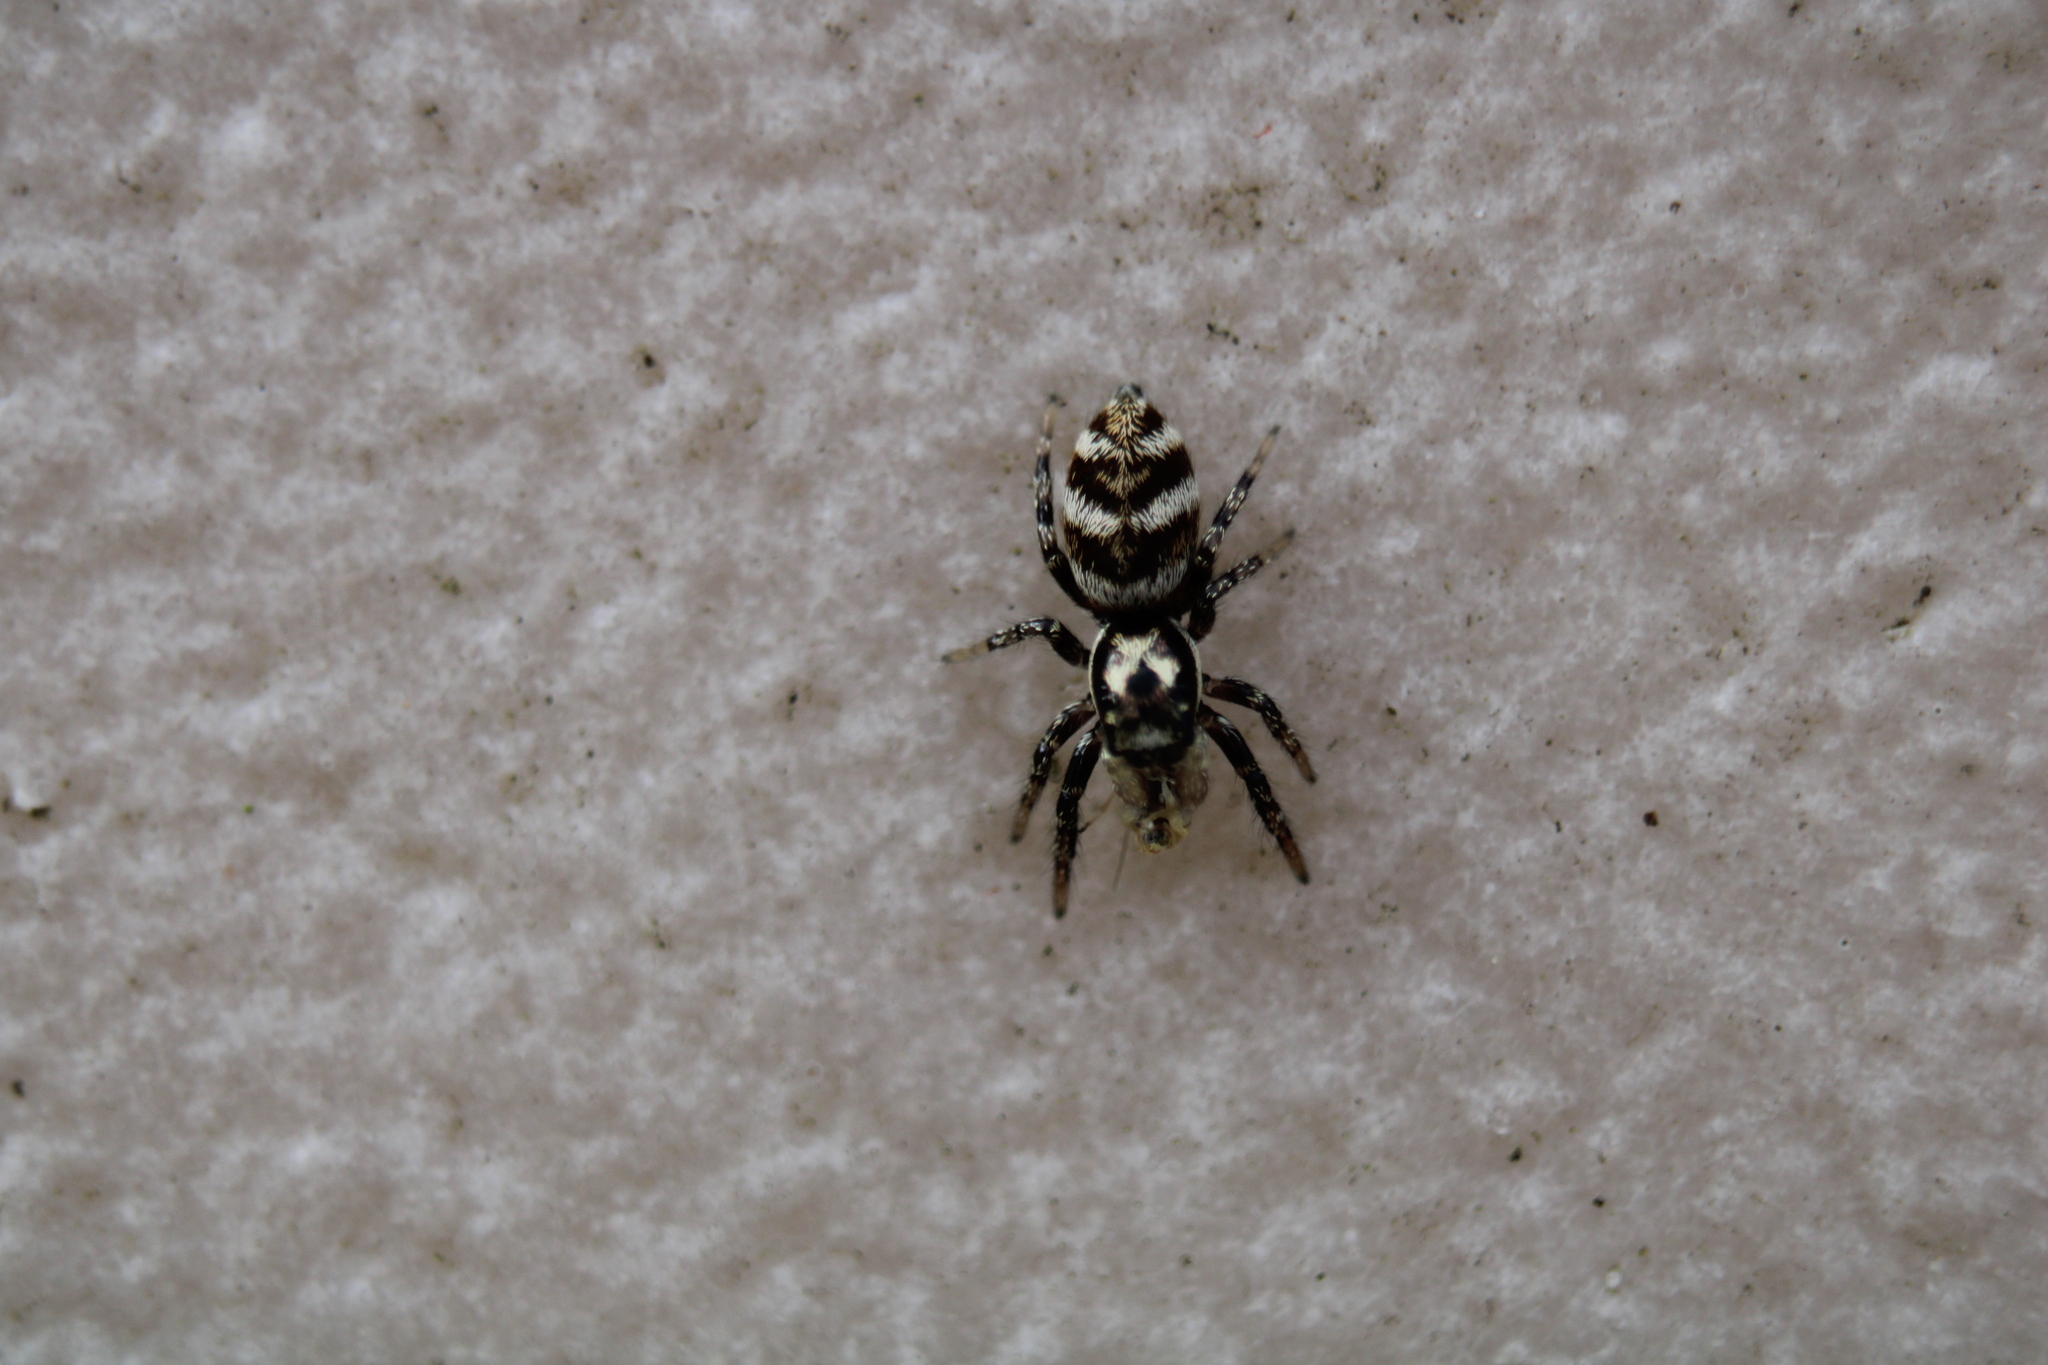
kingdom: Animalia
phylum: Arthropoda
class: Arachnida
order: Araneae
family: Salticidae
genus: Salticus
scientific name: Salticus scenicus
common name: Zebra jumper
